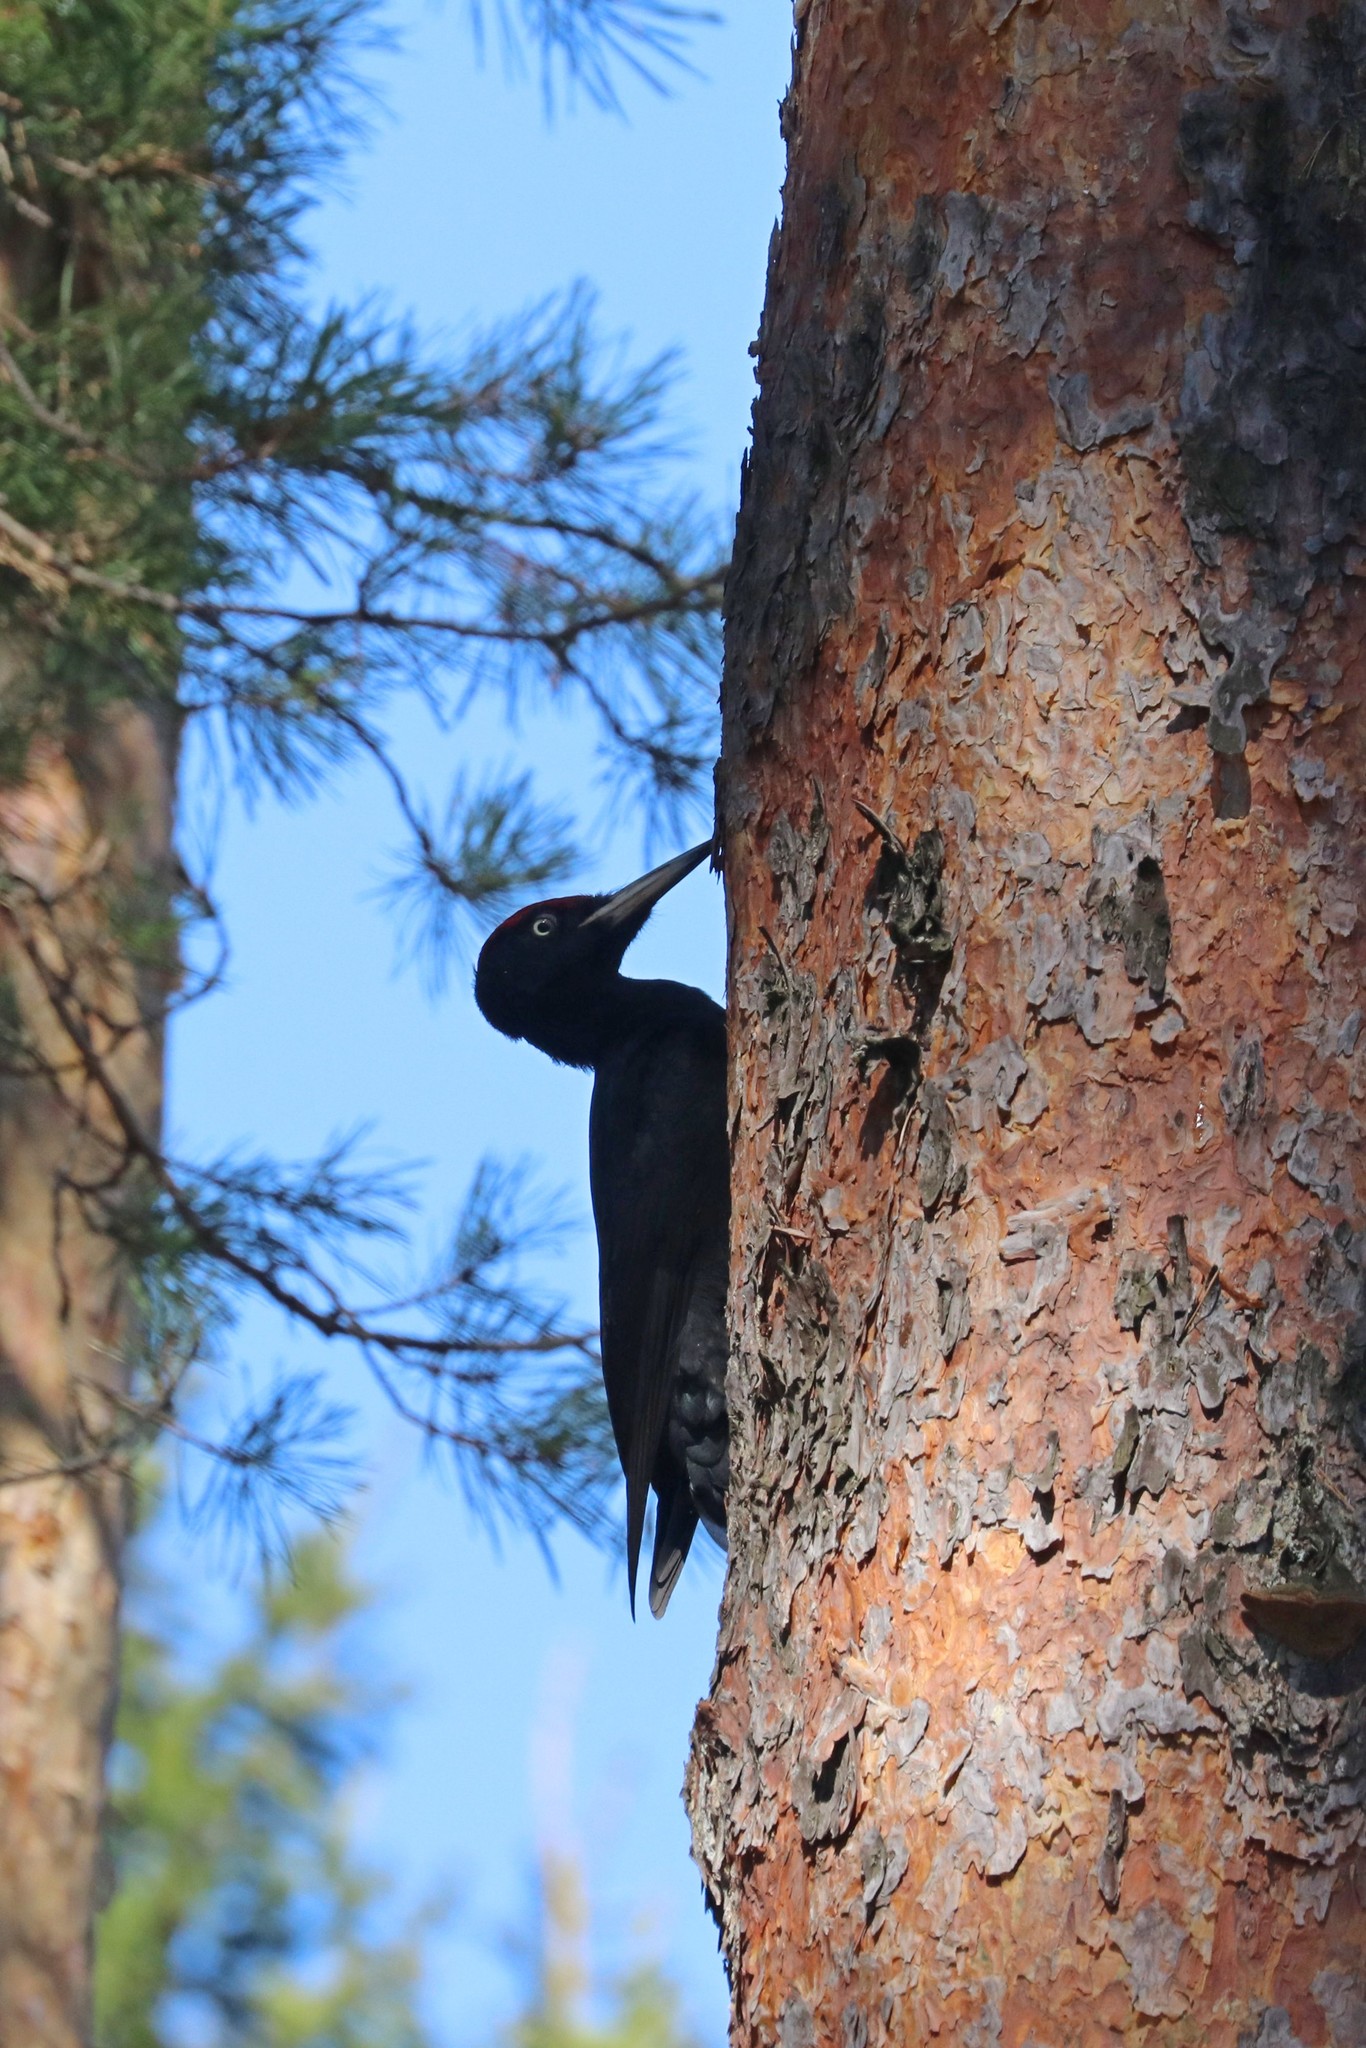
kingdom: Animalia
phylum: Chordata
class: Aves
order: Piciformes
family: Picidae
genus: Dryocopus
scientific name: Dryocopus martius
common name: Black woodpecker
